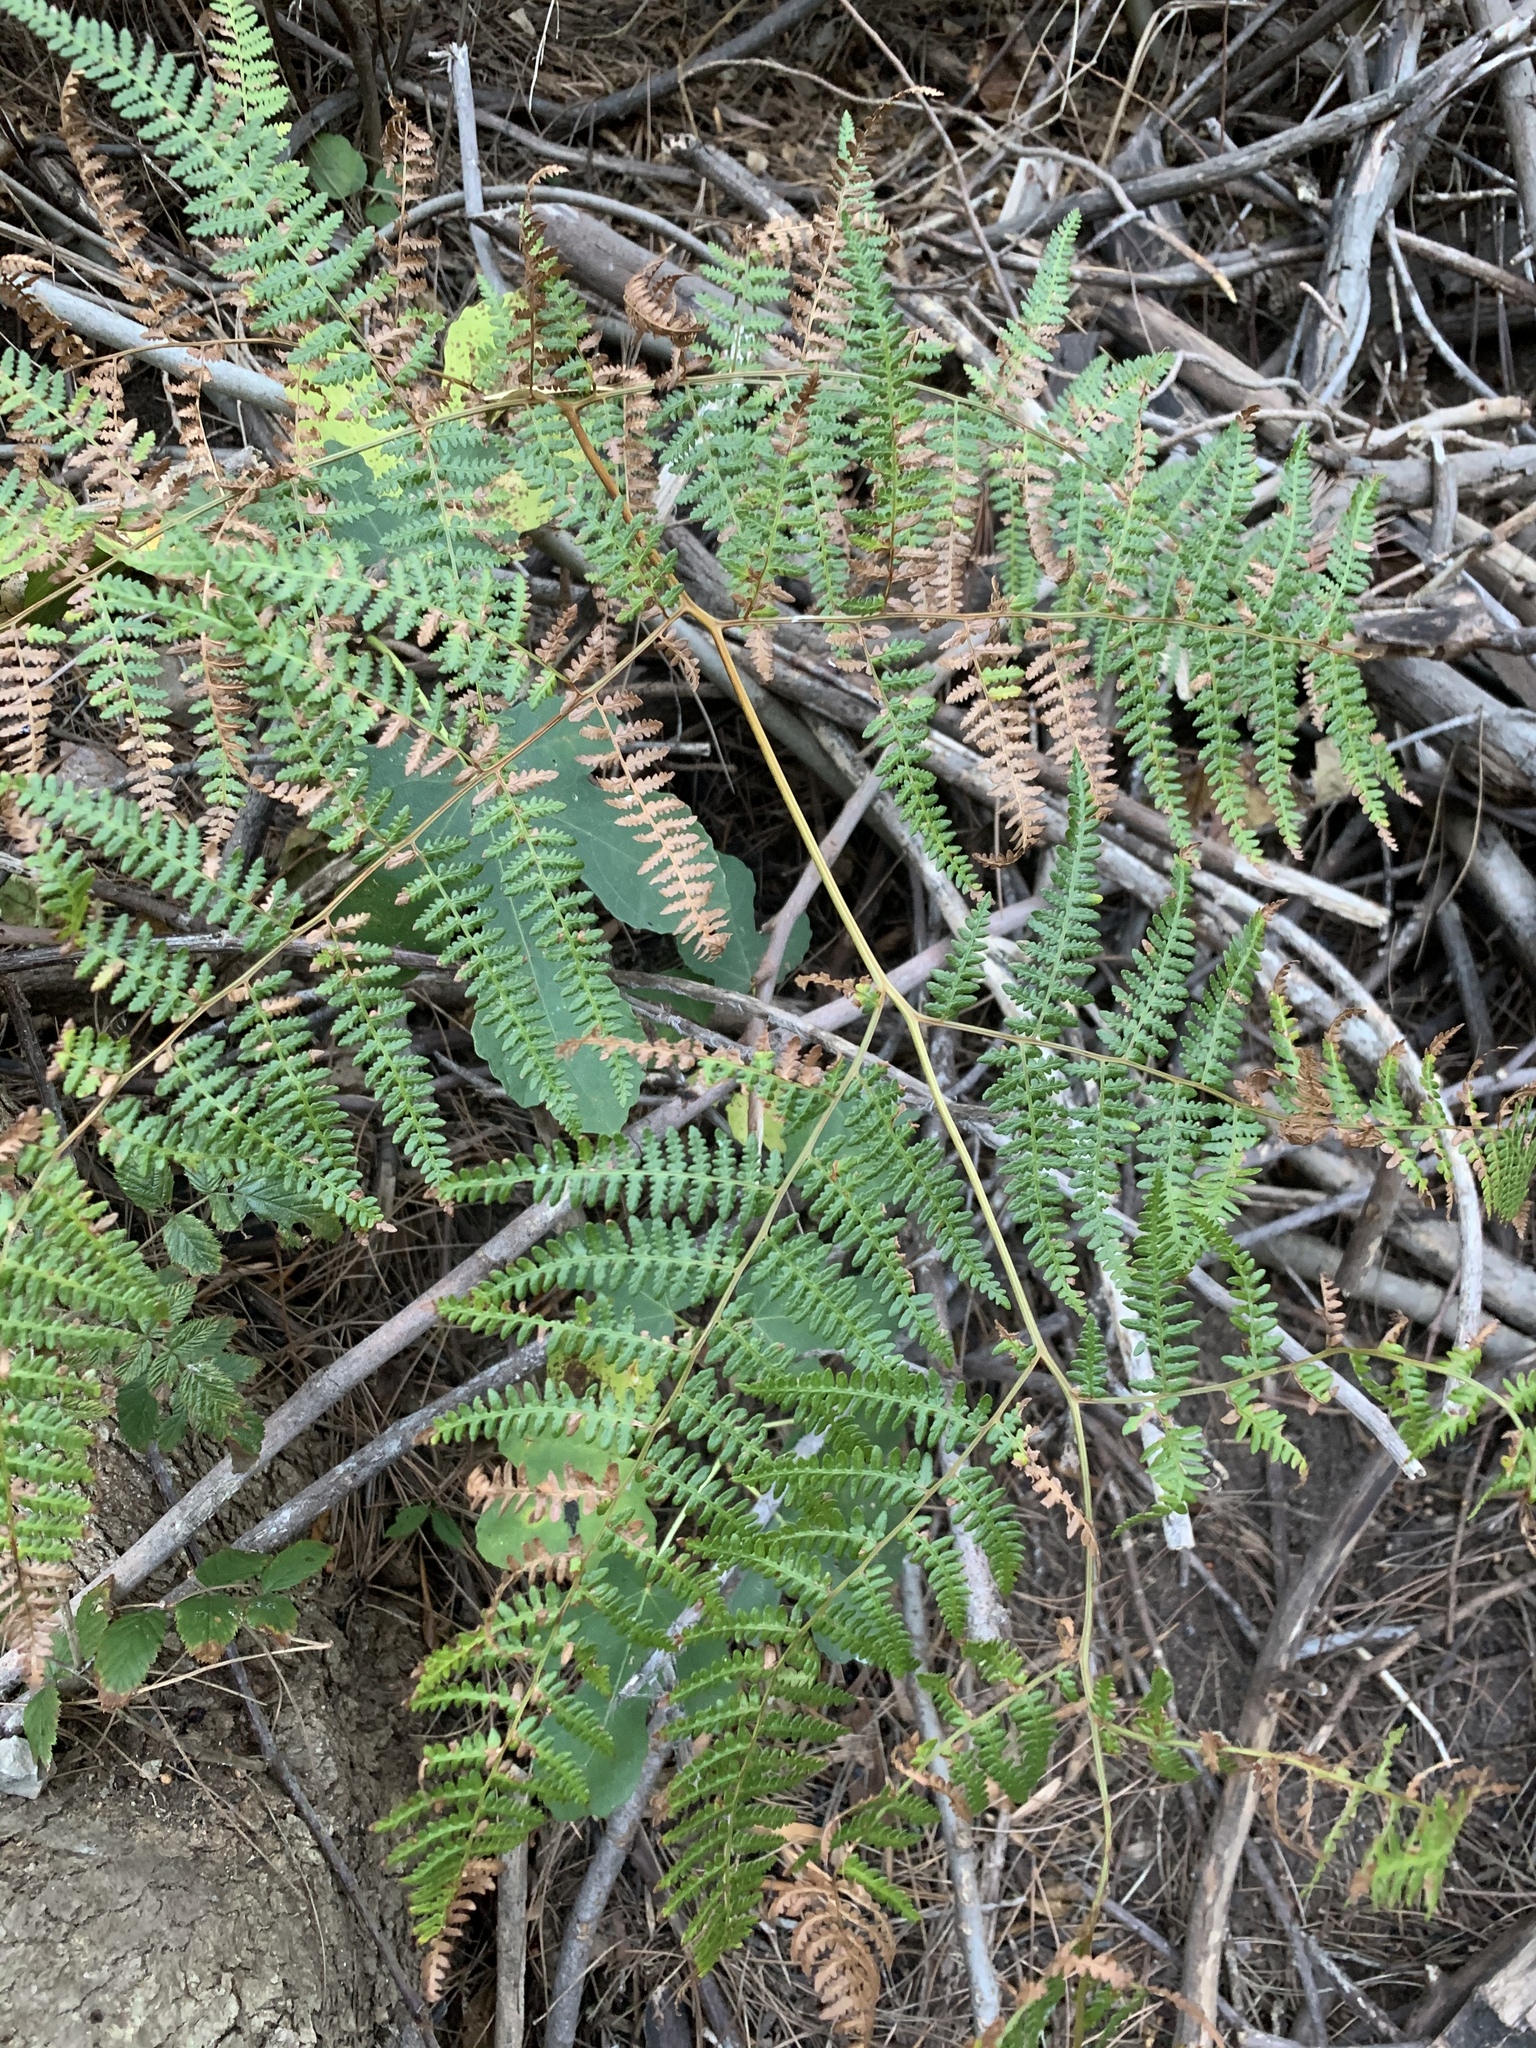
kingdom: Plantae
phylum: Tracheophyta
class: Polypodiopsida
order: Polypodiales
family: Dennstaedtiaceae
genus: Pteridium
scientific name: Pteridium aquilinum
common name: Bracken
